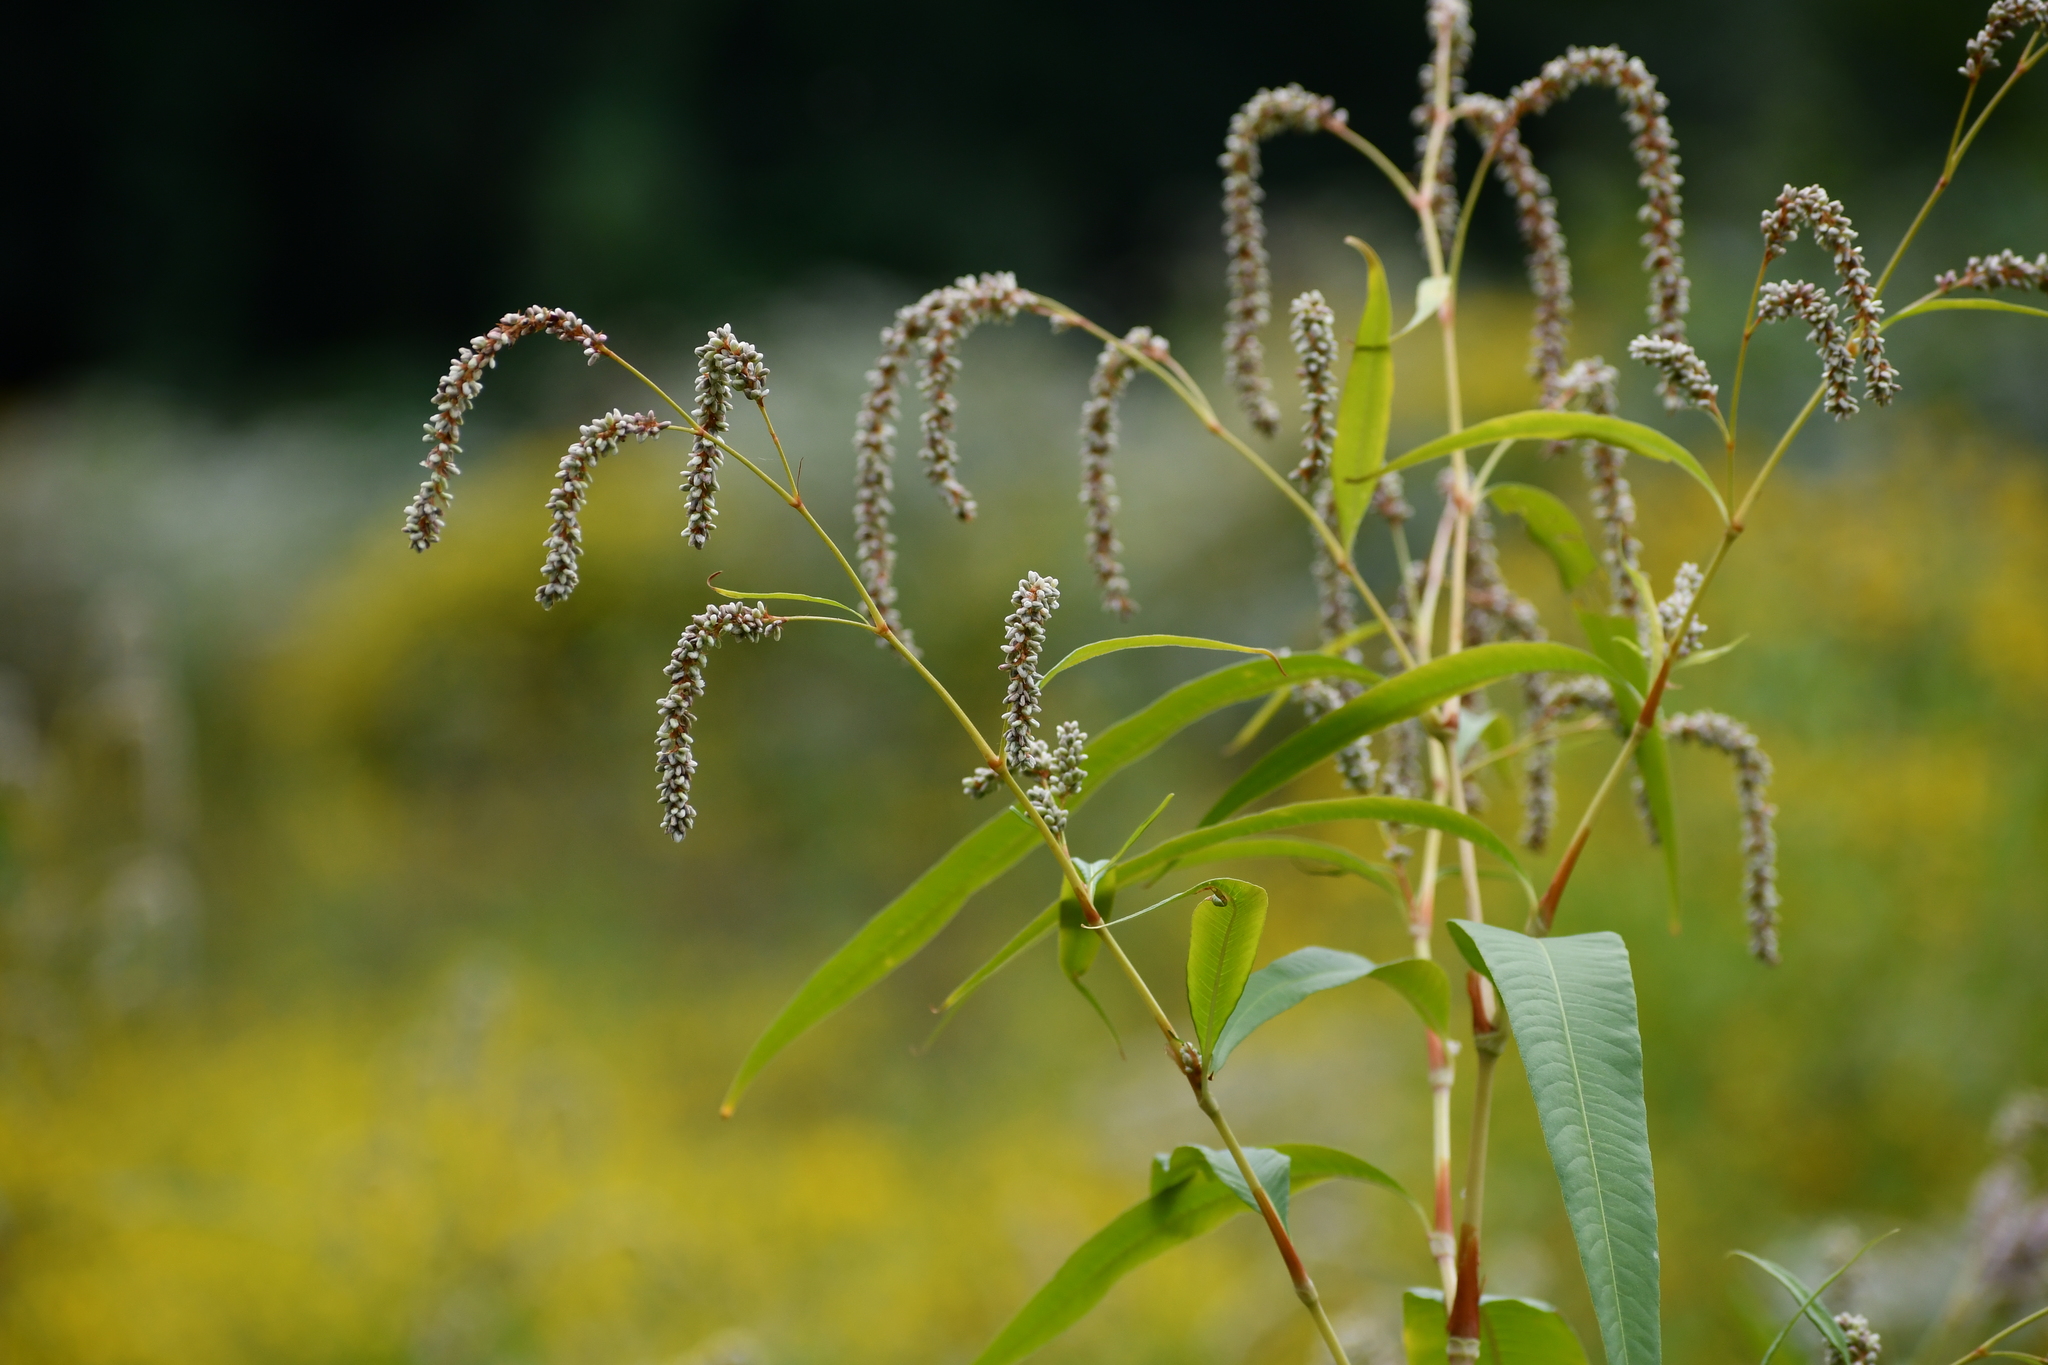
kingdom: Plantae
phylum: Tracheophyta
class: Magnoliopsida
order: Caryophyllales
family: Polygonaceae
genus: Persicaria
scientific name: Persicaria lapathifolia
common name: Curlytop knotweed
